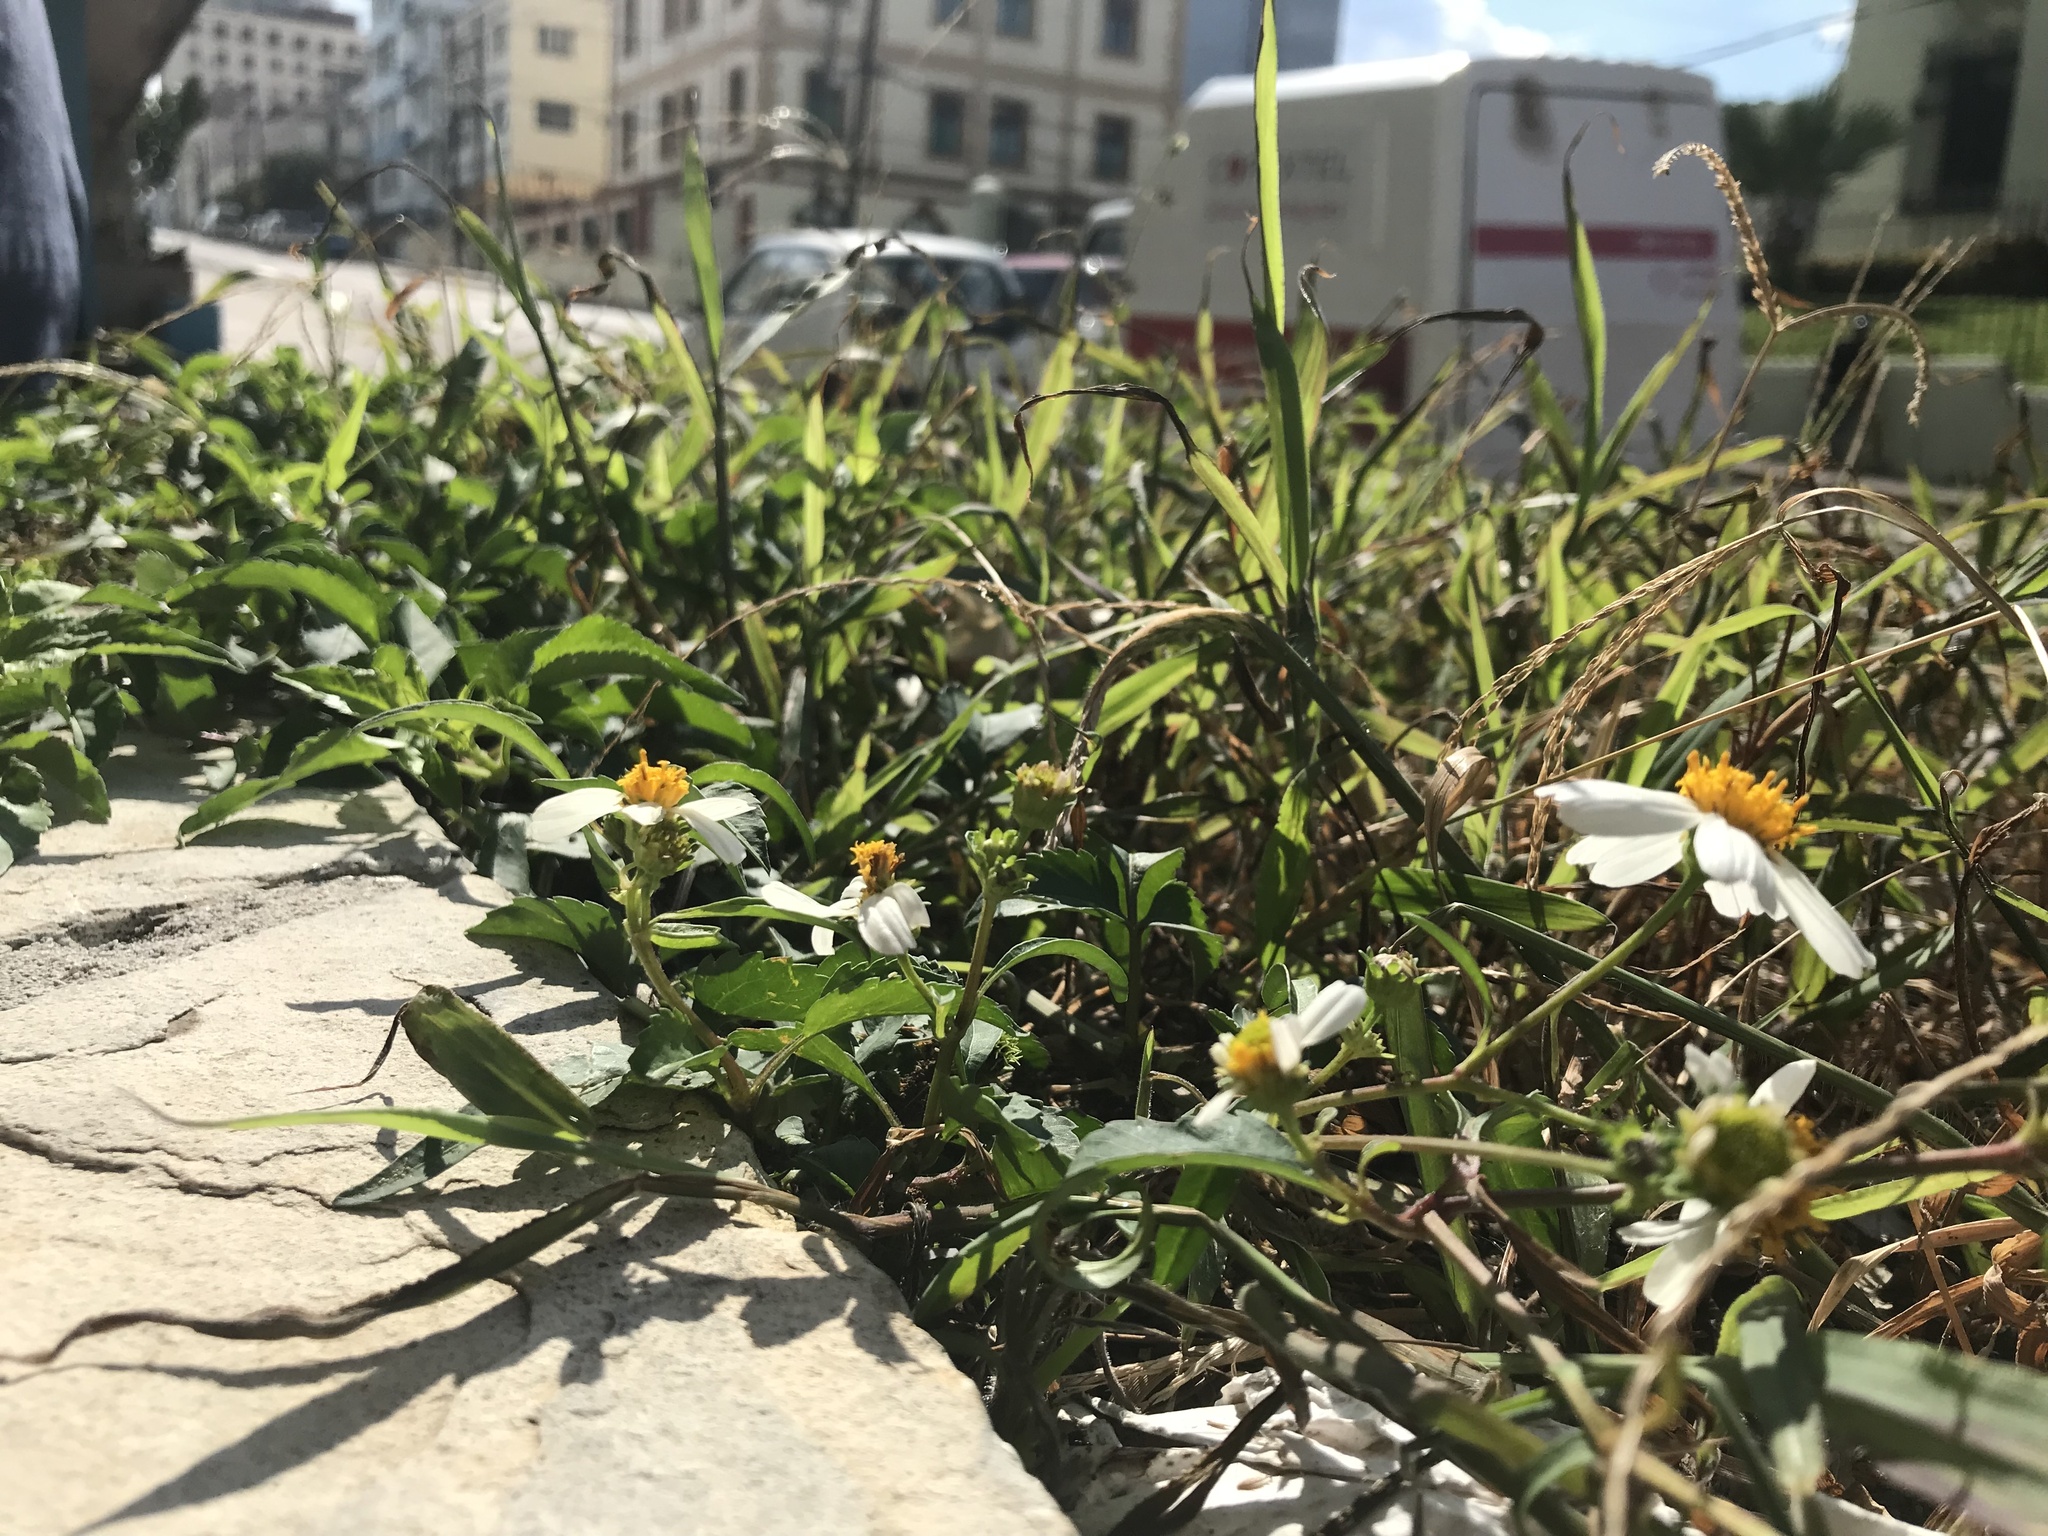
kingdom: Plantae
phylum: Tracheophyta
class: Magnoliopsida
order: Asterales
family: Asteraceae
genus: Bidens
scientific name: Bidens alba
